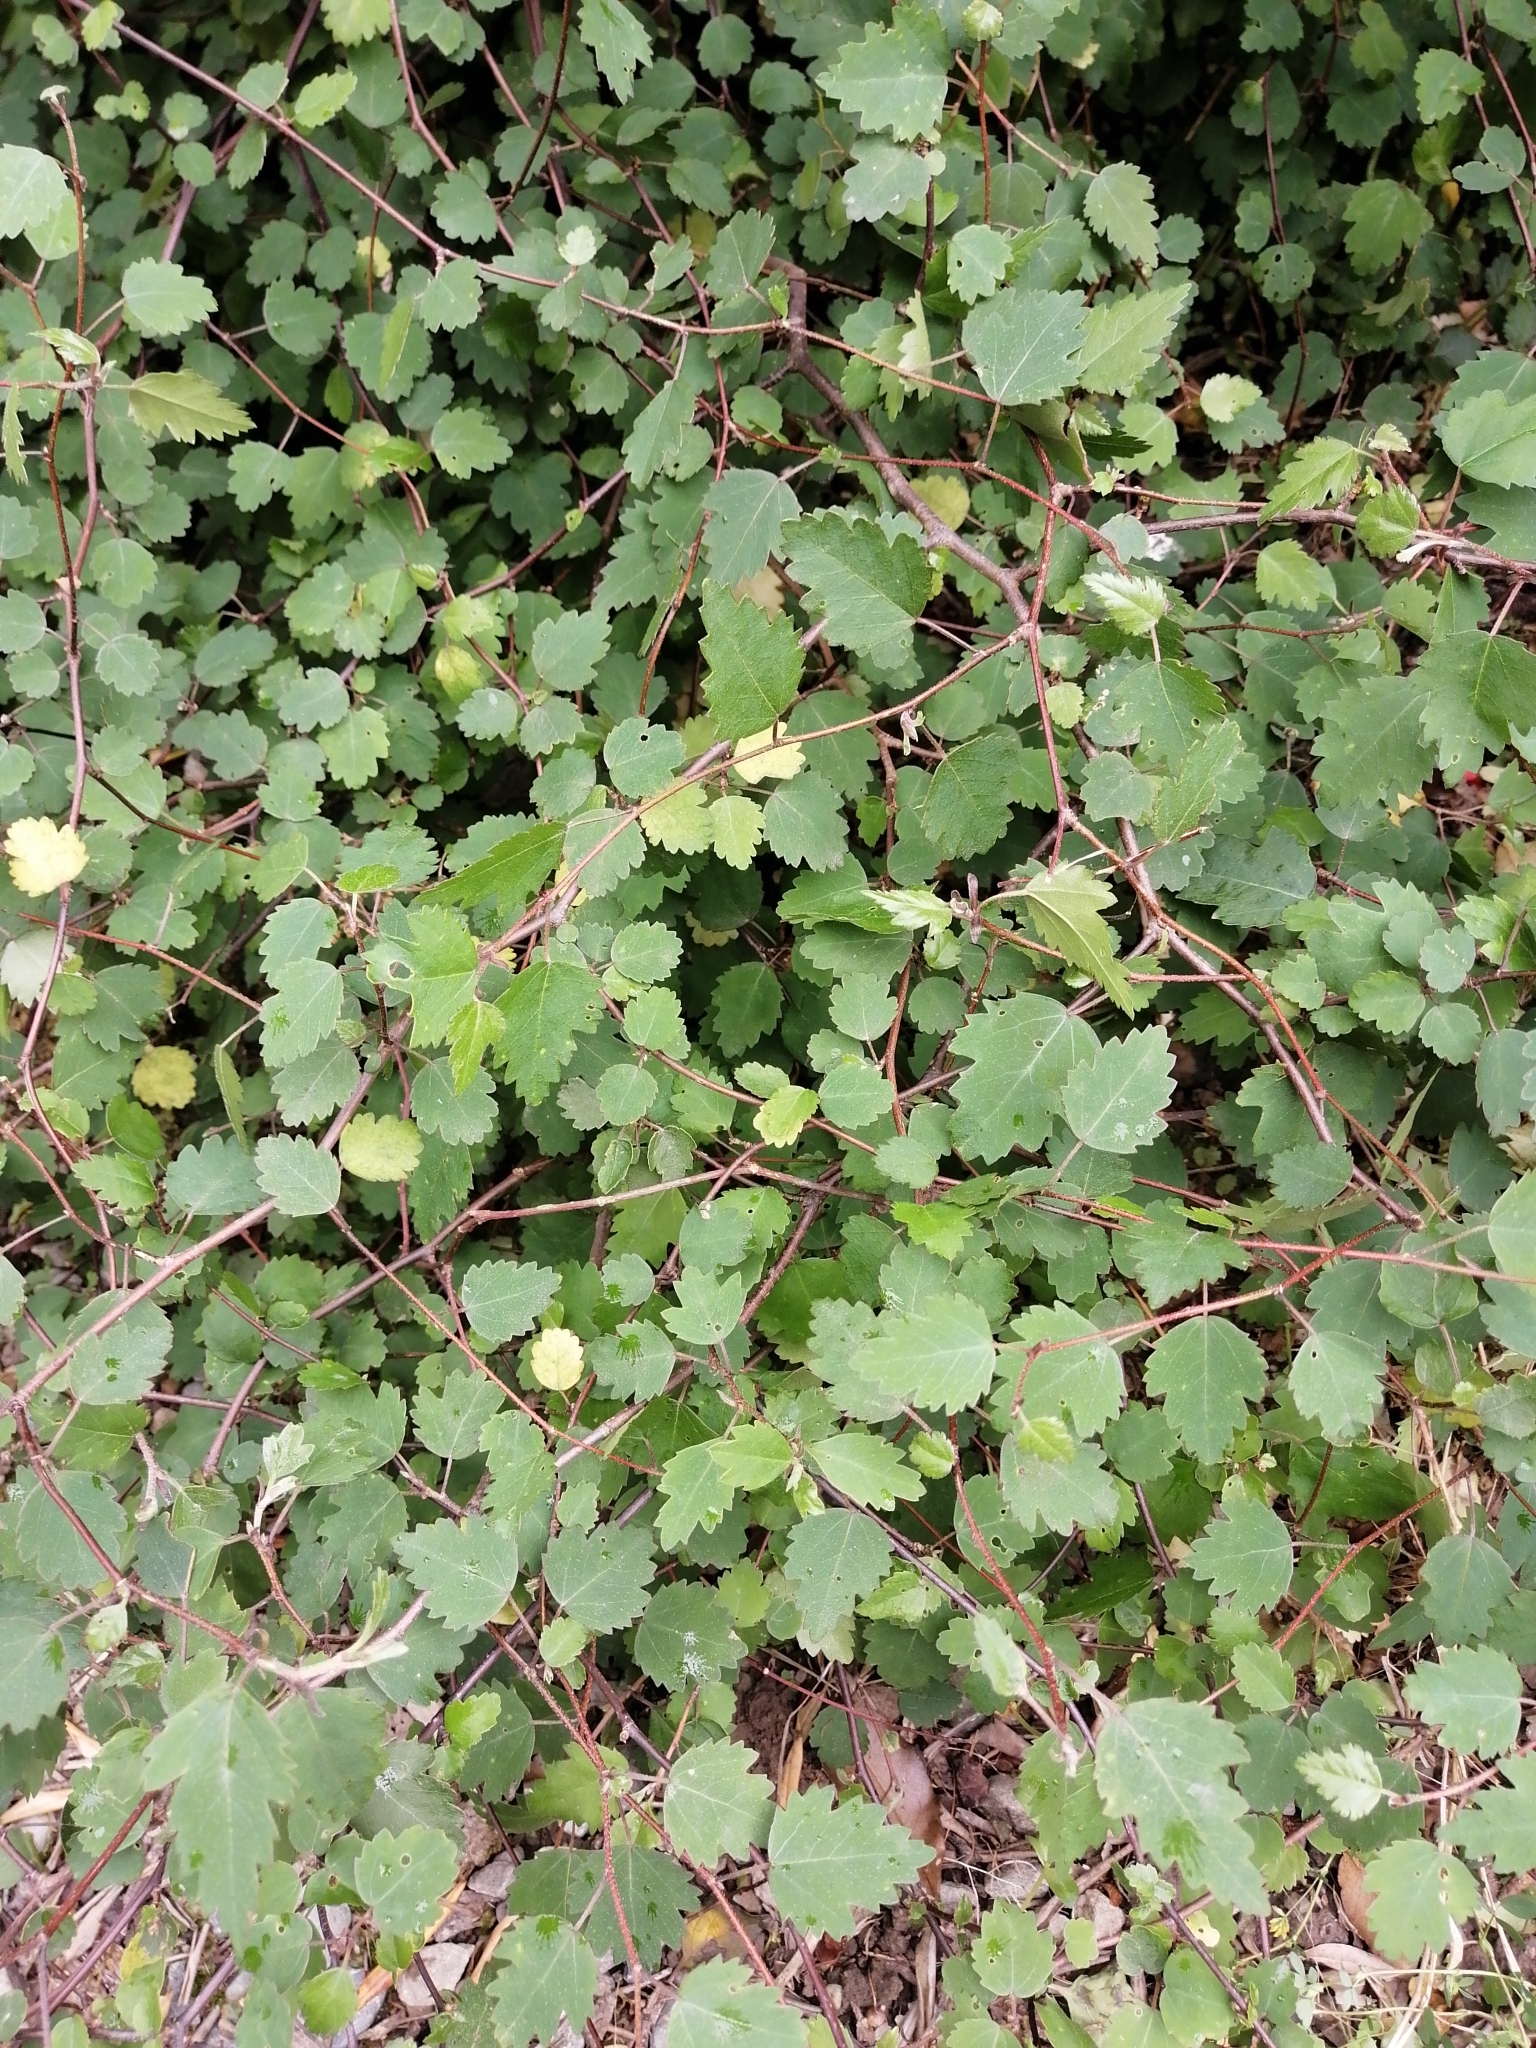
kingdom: Plantae
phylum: Tracheophyta
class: Magnoliopsida
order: Malvales
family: Malvaceae
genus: Plagianthus
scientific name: Plagianthus regius
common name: Manatu
